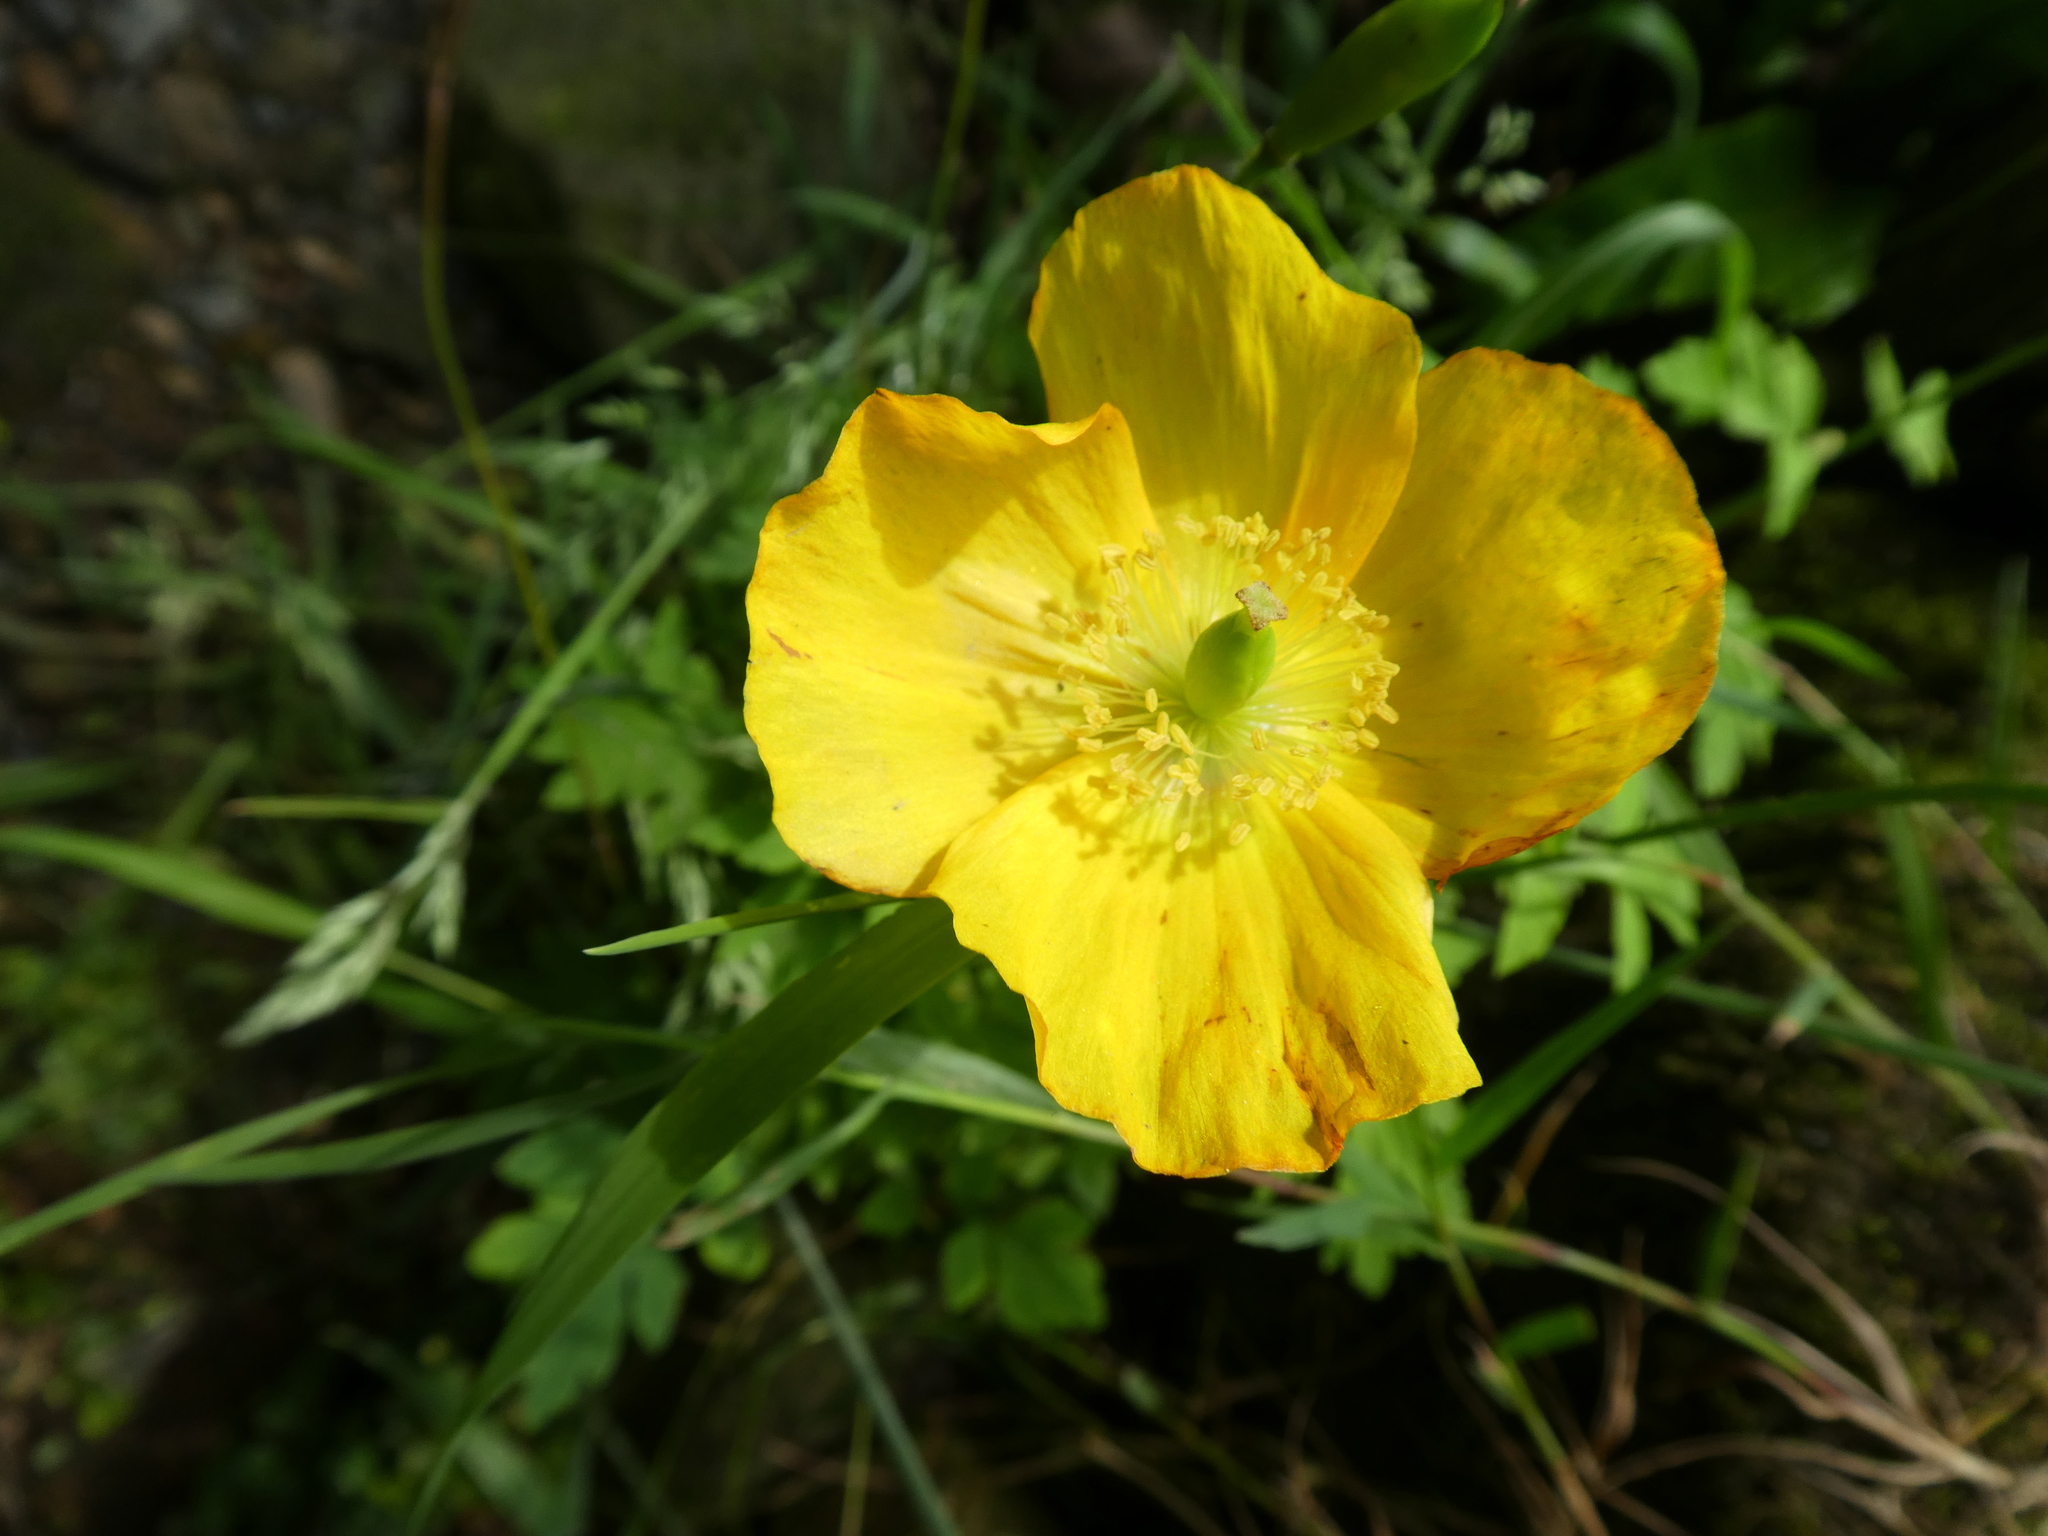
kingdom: Plantae
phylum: Tracheophyta
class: Magnoliopsida
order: Ranunculales
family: Papaveraceae
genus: Papaver
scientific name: Papaver cambricum
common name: Poppy
